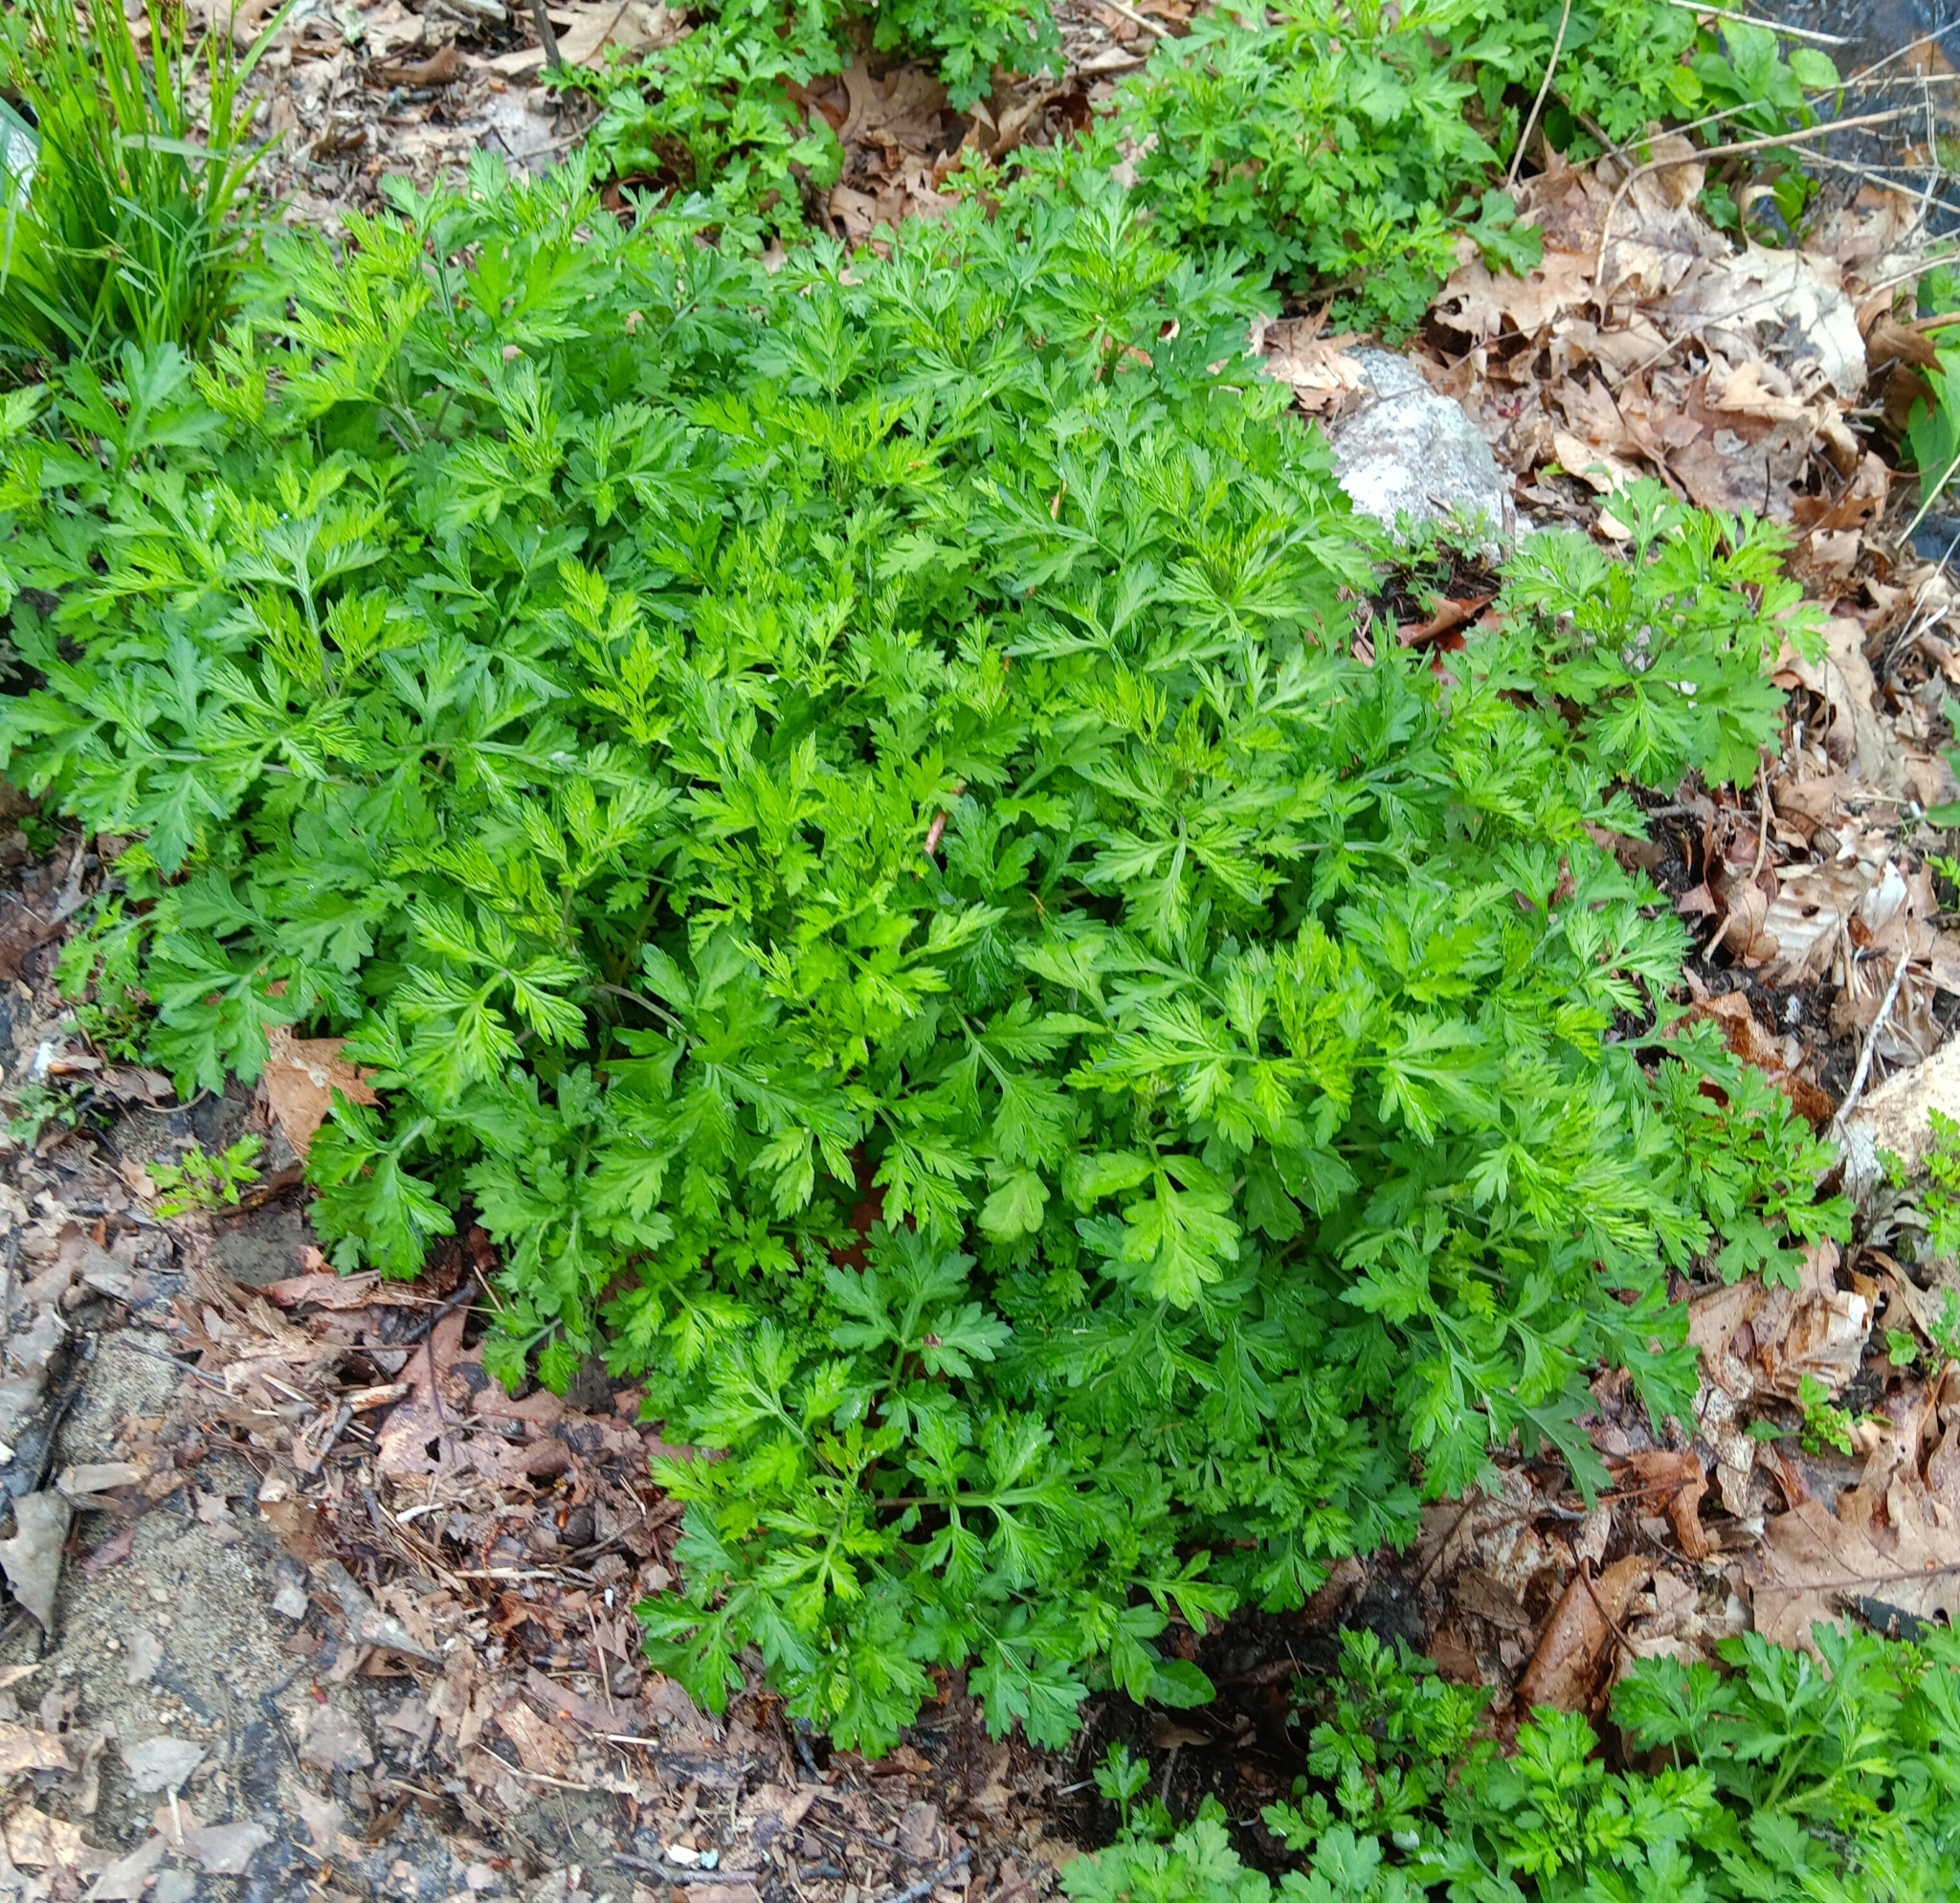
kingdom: Plantae
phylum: Tracheophyta
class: Magnoliopsida
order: Asterales
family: Asteraceae
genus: Artemisia
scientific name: Artemisia vulgaris
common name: Mugwort
